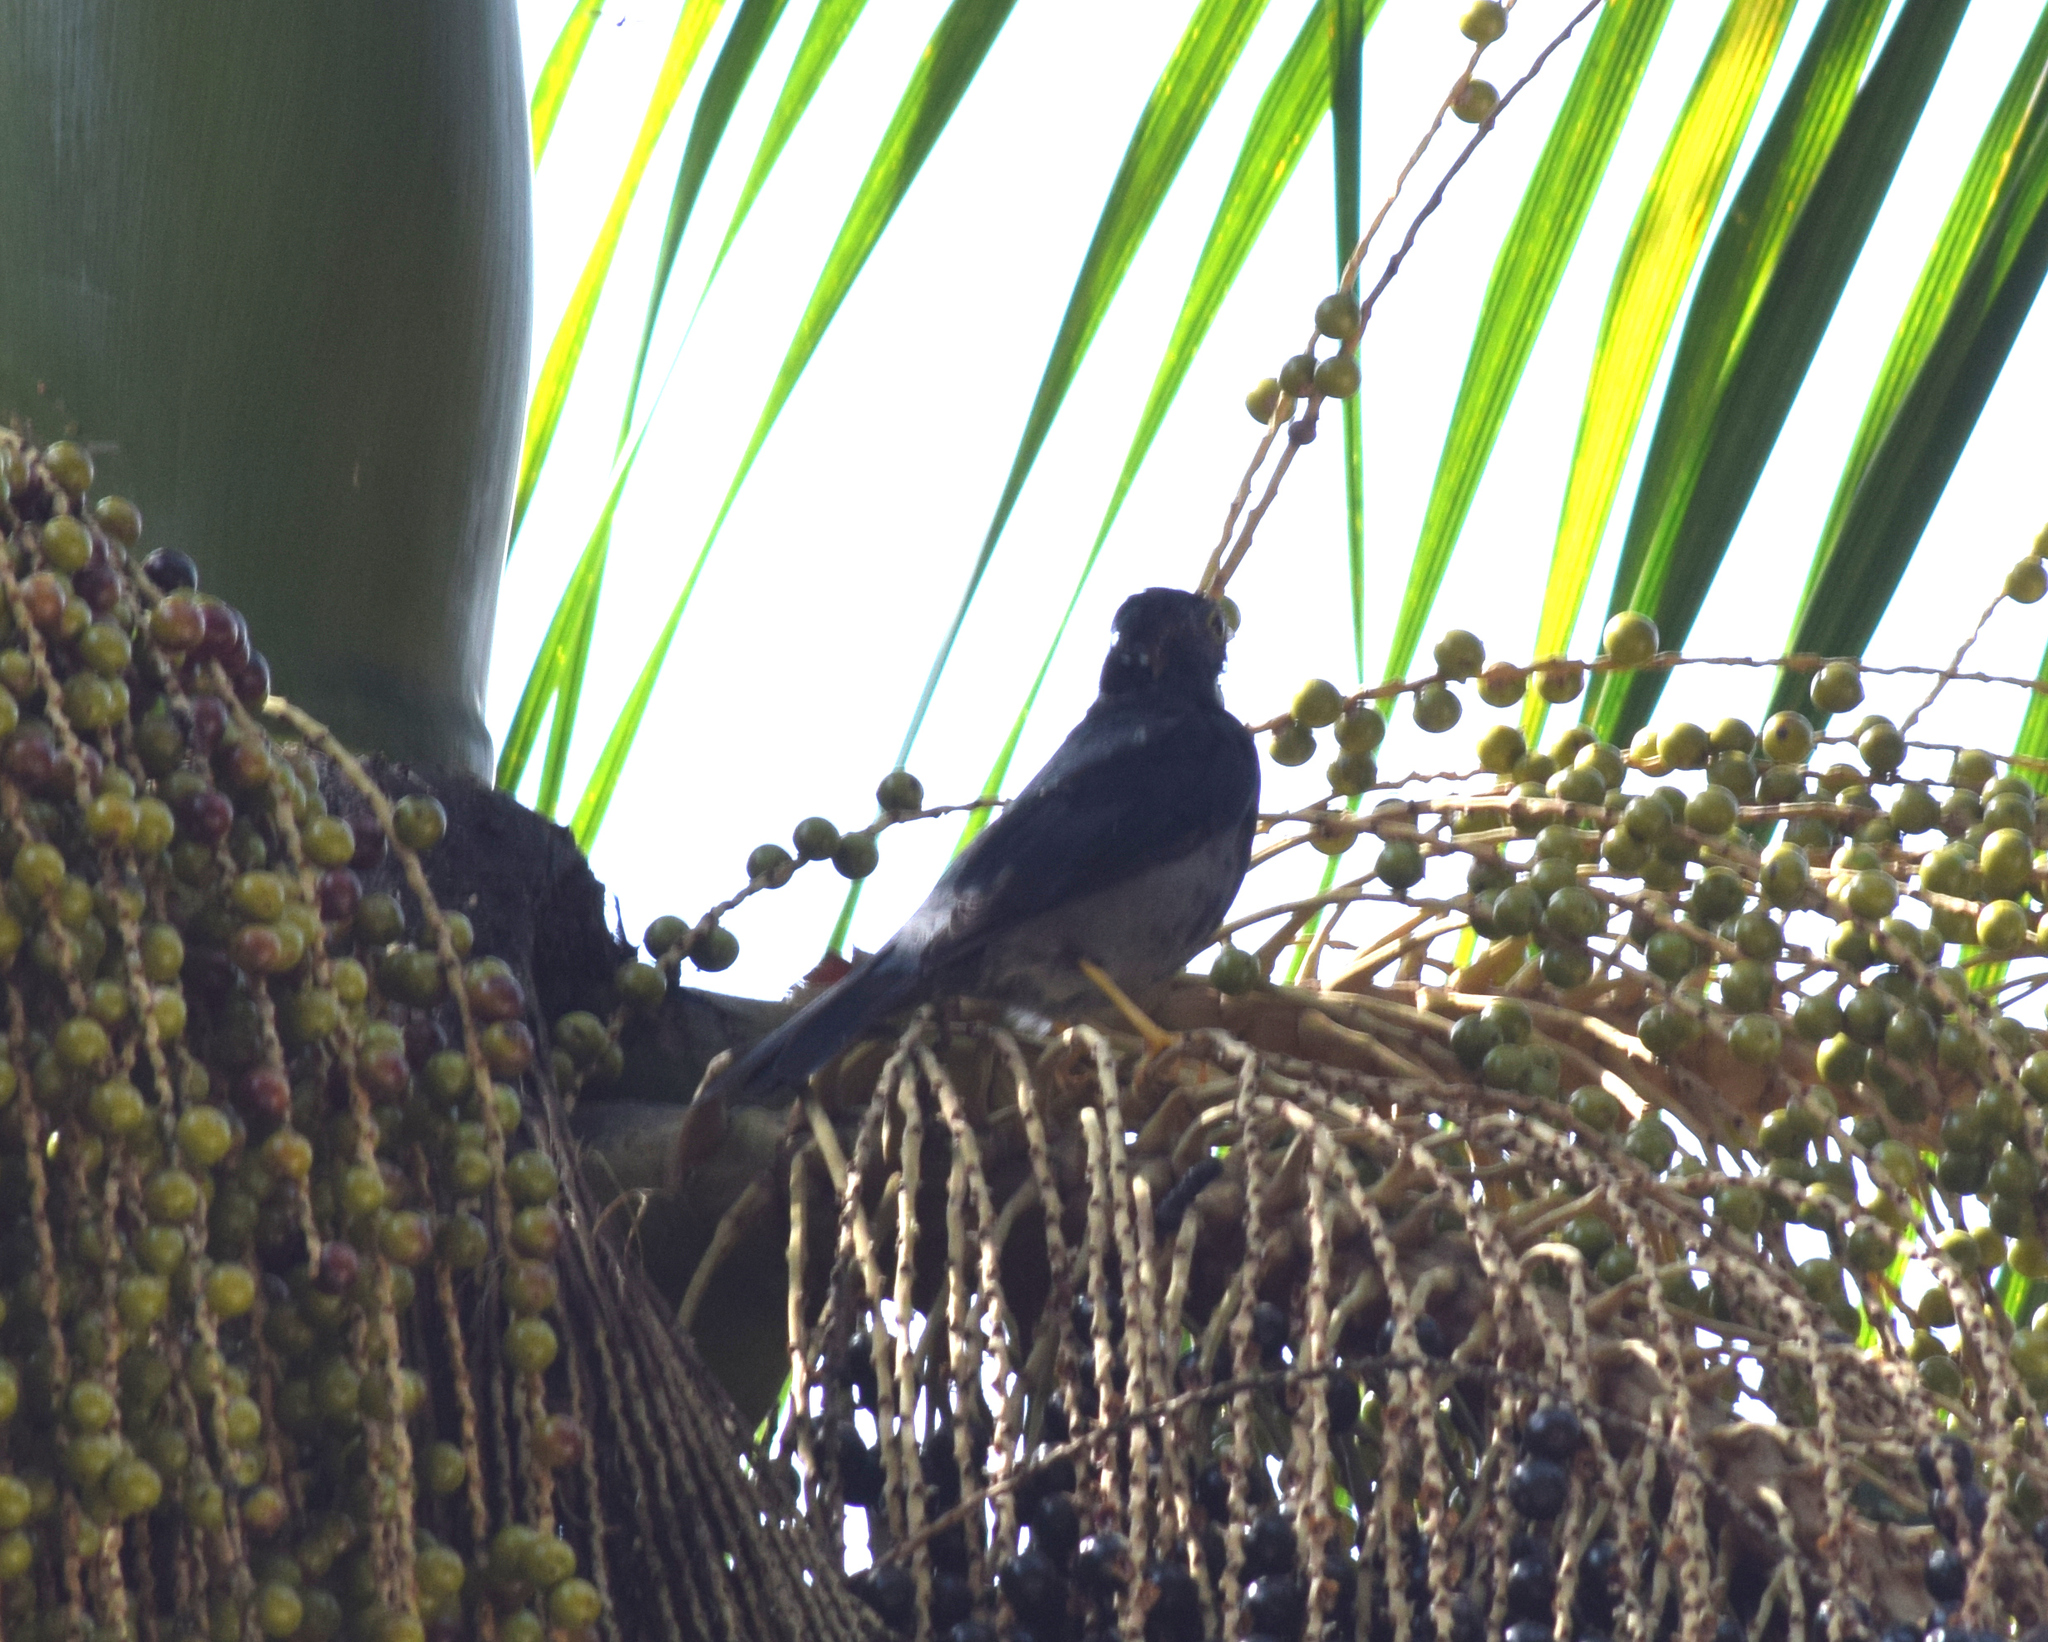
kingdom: Animalia
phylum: Chordata
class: Aves
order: Passeriformes
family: Turdidae
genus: Turdus
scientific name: Turdus flavipes
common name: Yellow-legged thrush
